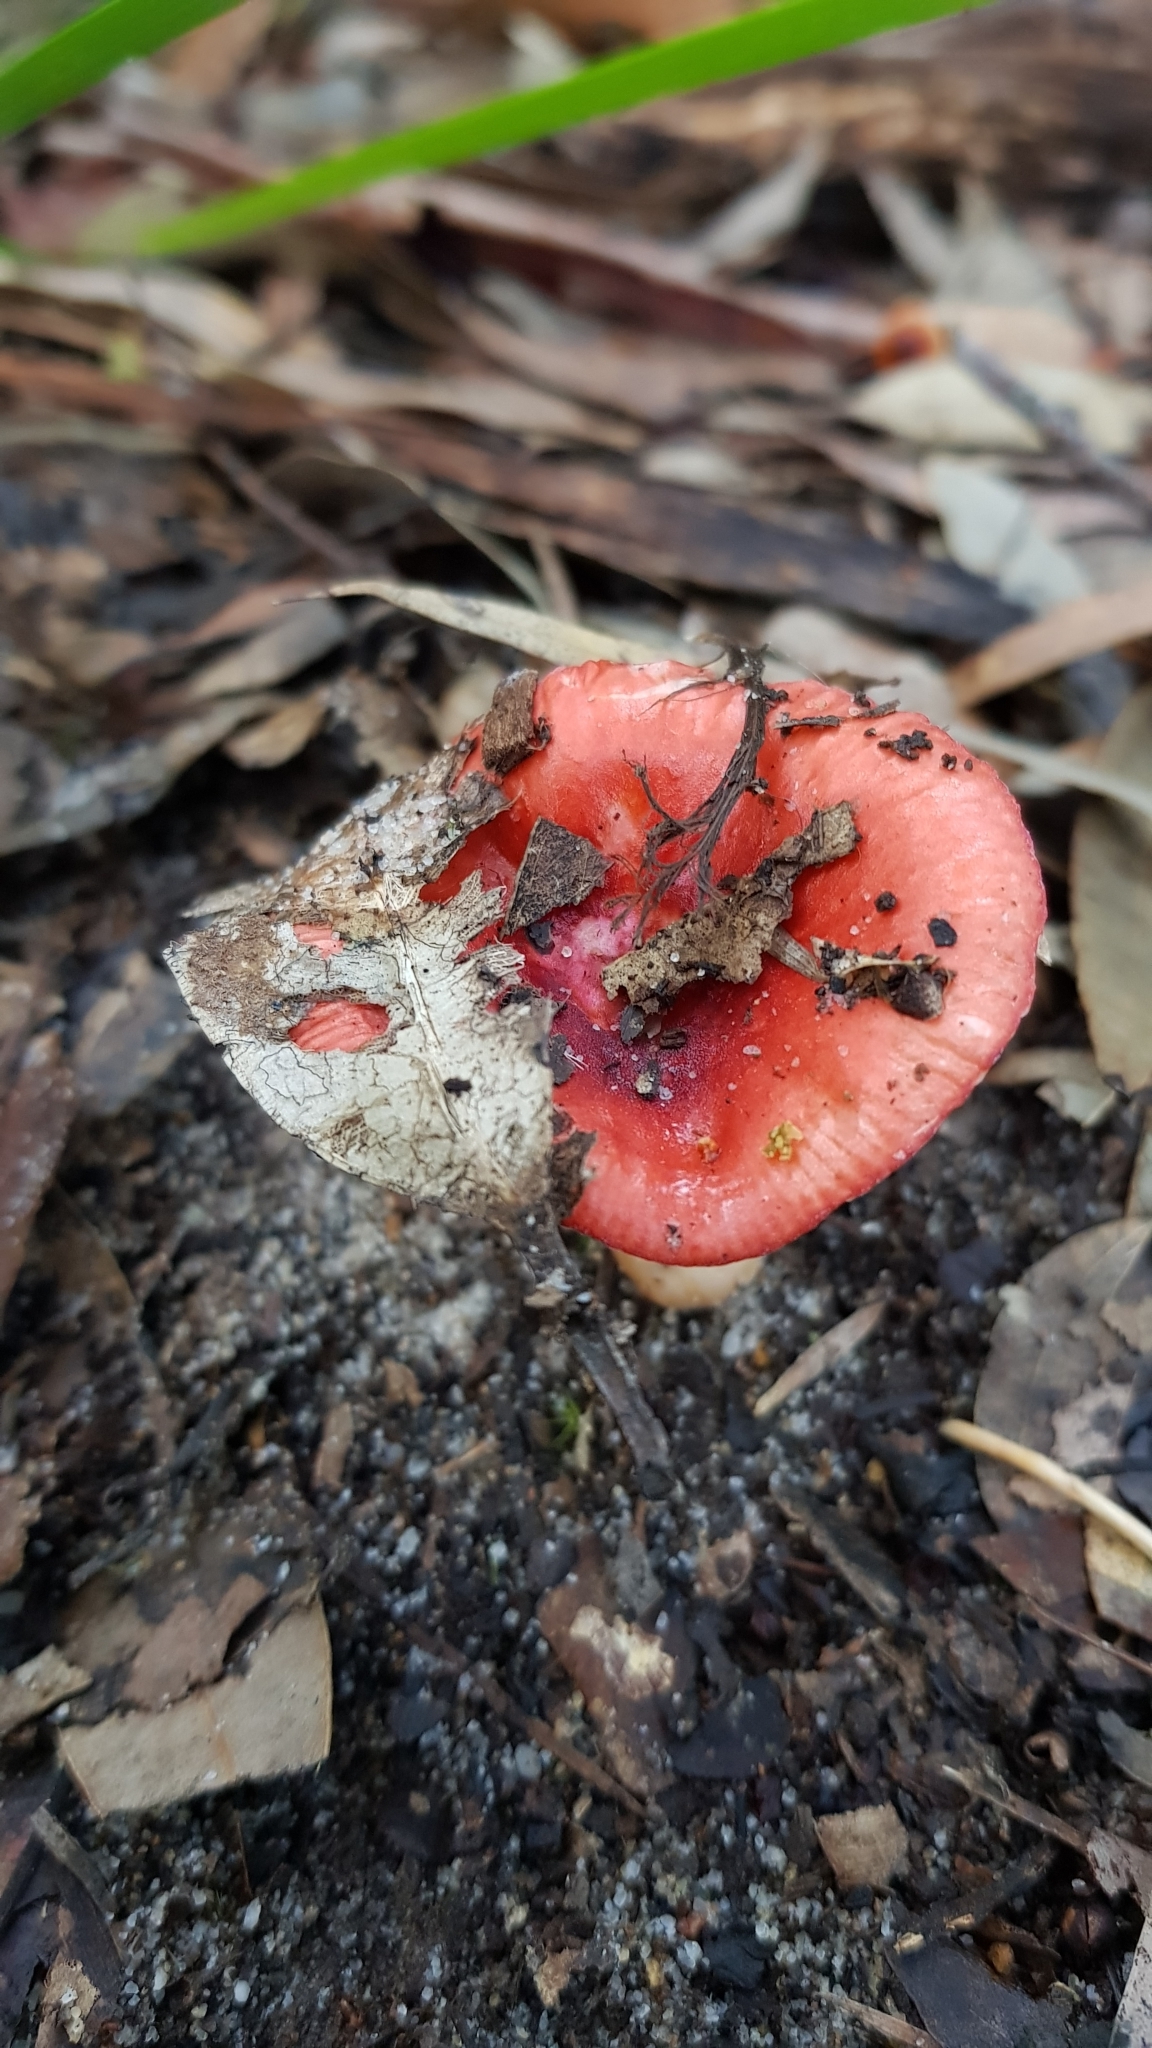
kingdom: Fungi
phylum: Basidiomycota
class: Agaricomycetes
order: Russulales
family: Russulaceae
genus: Russula
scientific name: Russula persanguinea
